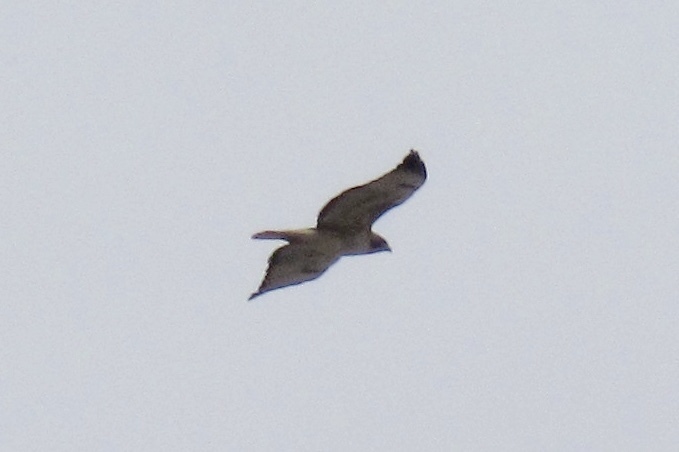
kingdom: Animalia
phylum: Chordata
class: Aves
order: Accipitriformes
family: Accipitridae
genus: Buteo
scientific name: Buteo jamaicensis
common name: Red-tailed hawk
